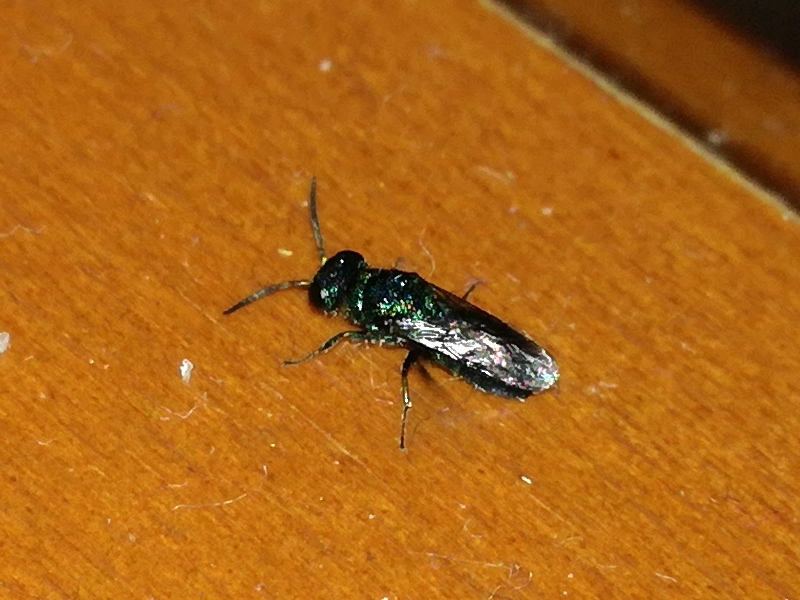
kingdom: Animalia
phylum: Arthropoda
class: Insecta
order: Hymenoptera
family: Pompilidae
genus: Pepsis
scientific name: Pepsis cyanea
